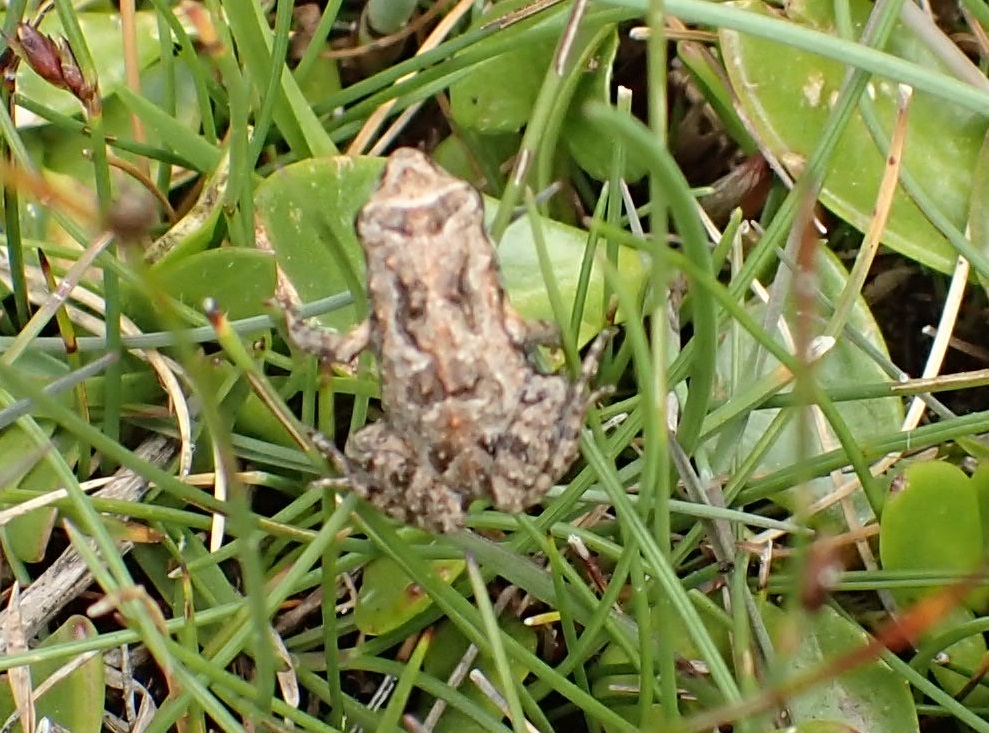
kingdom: Animalia
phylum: Chordata
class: Amphibia
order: Anura
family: Myobatrachidae
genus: Crinia
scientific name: Crinia signifera
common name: Brown froglet
